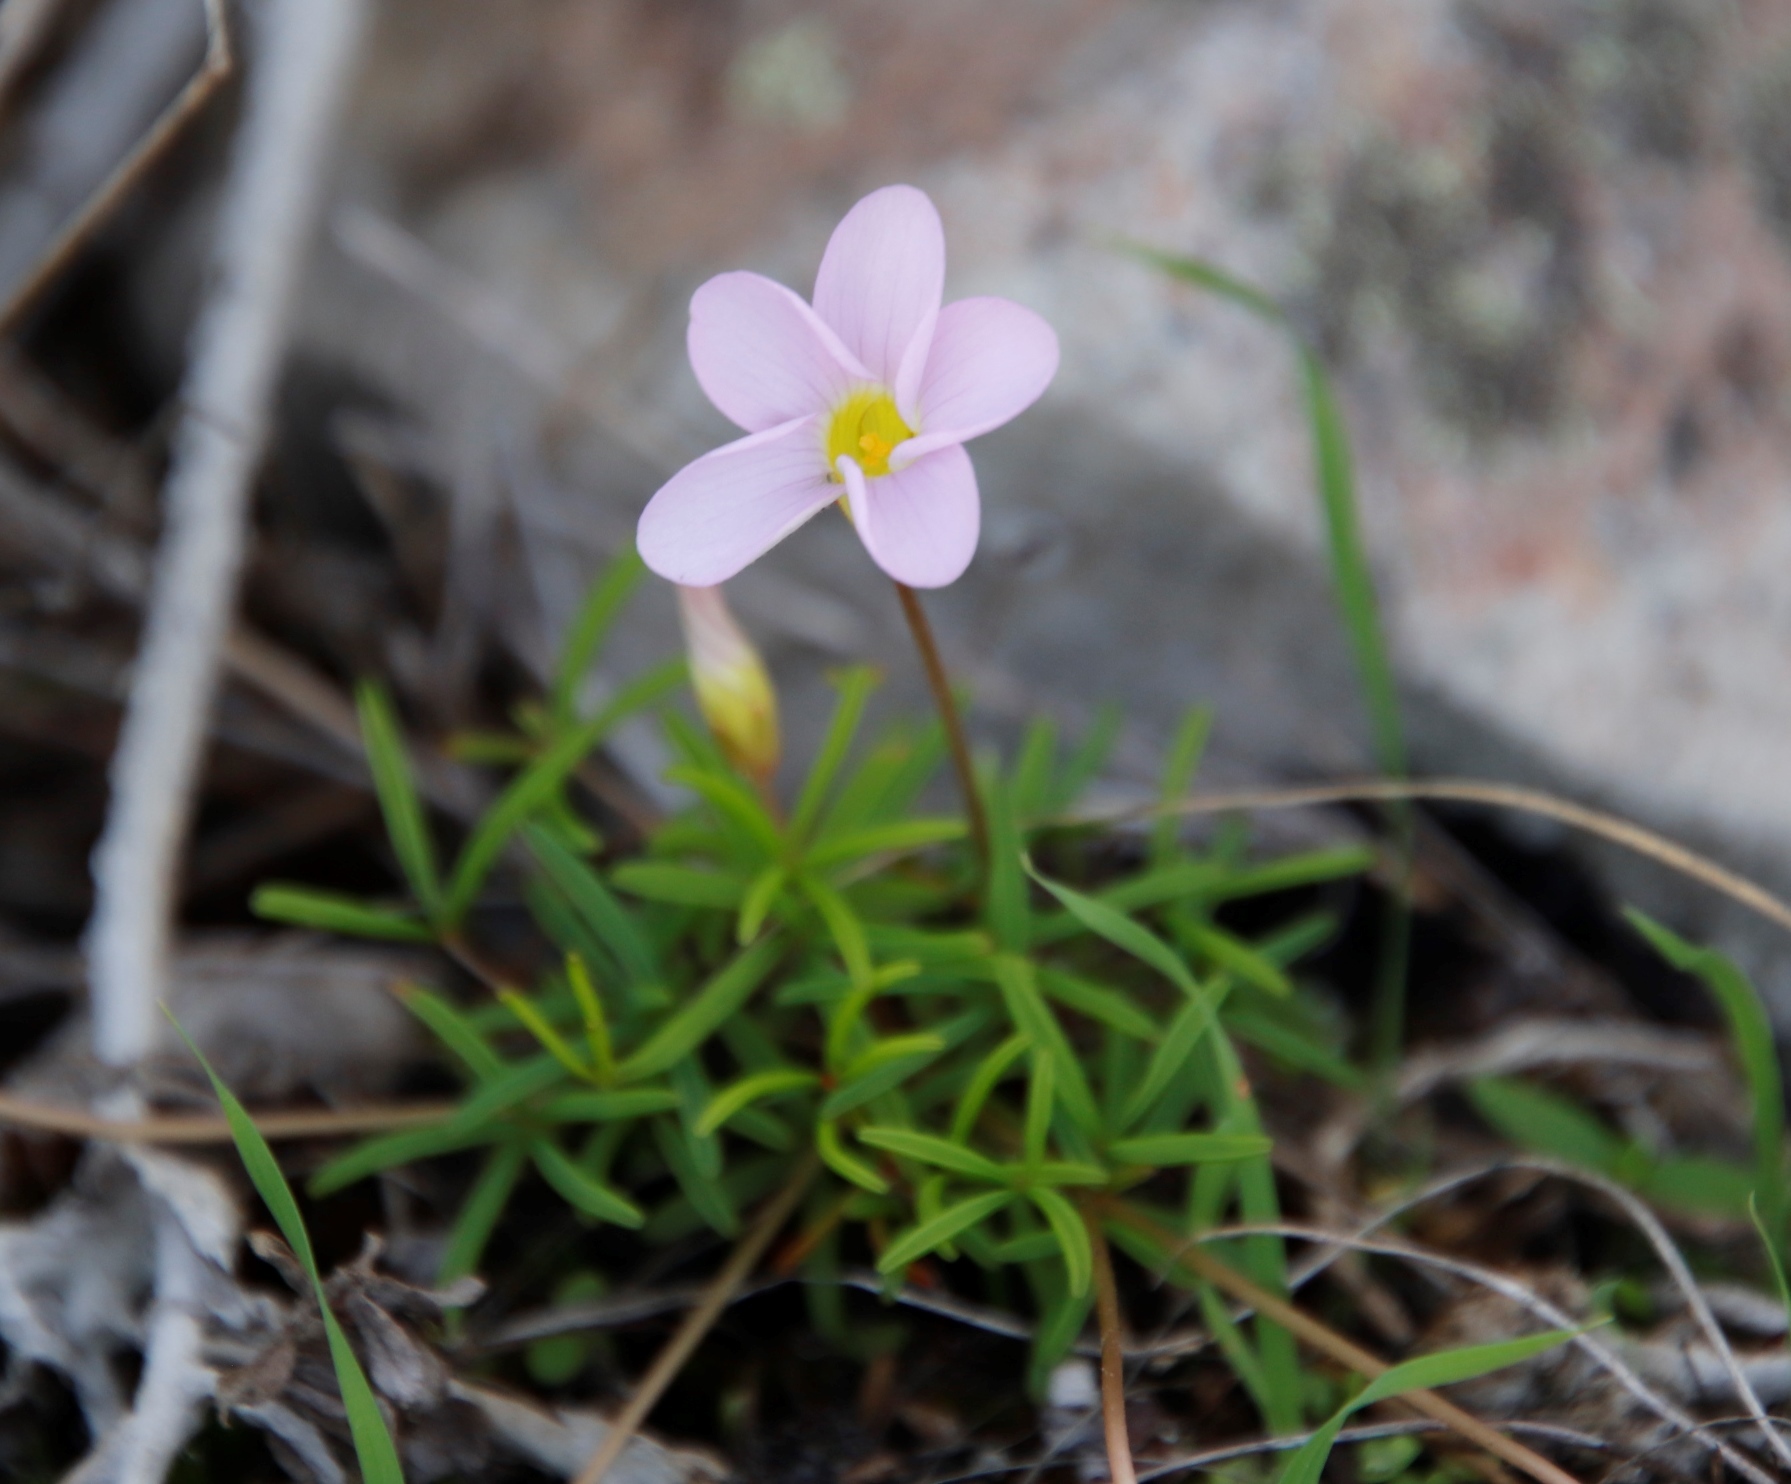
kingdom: Plantae
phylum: Tracheophyta
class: Magnoliopsida
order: Oxalidales
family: Oxalidaceae
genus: Oxalis
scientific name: Oxalis polyphylla
